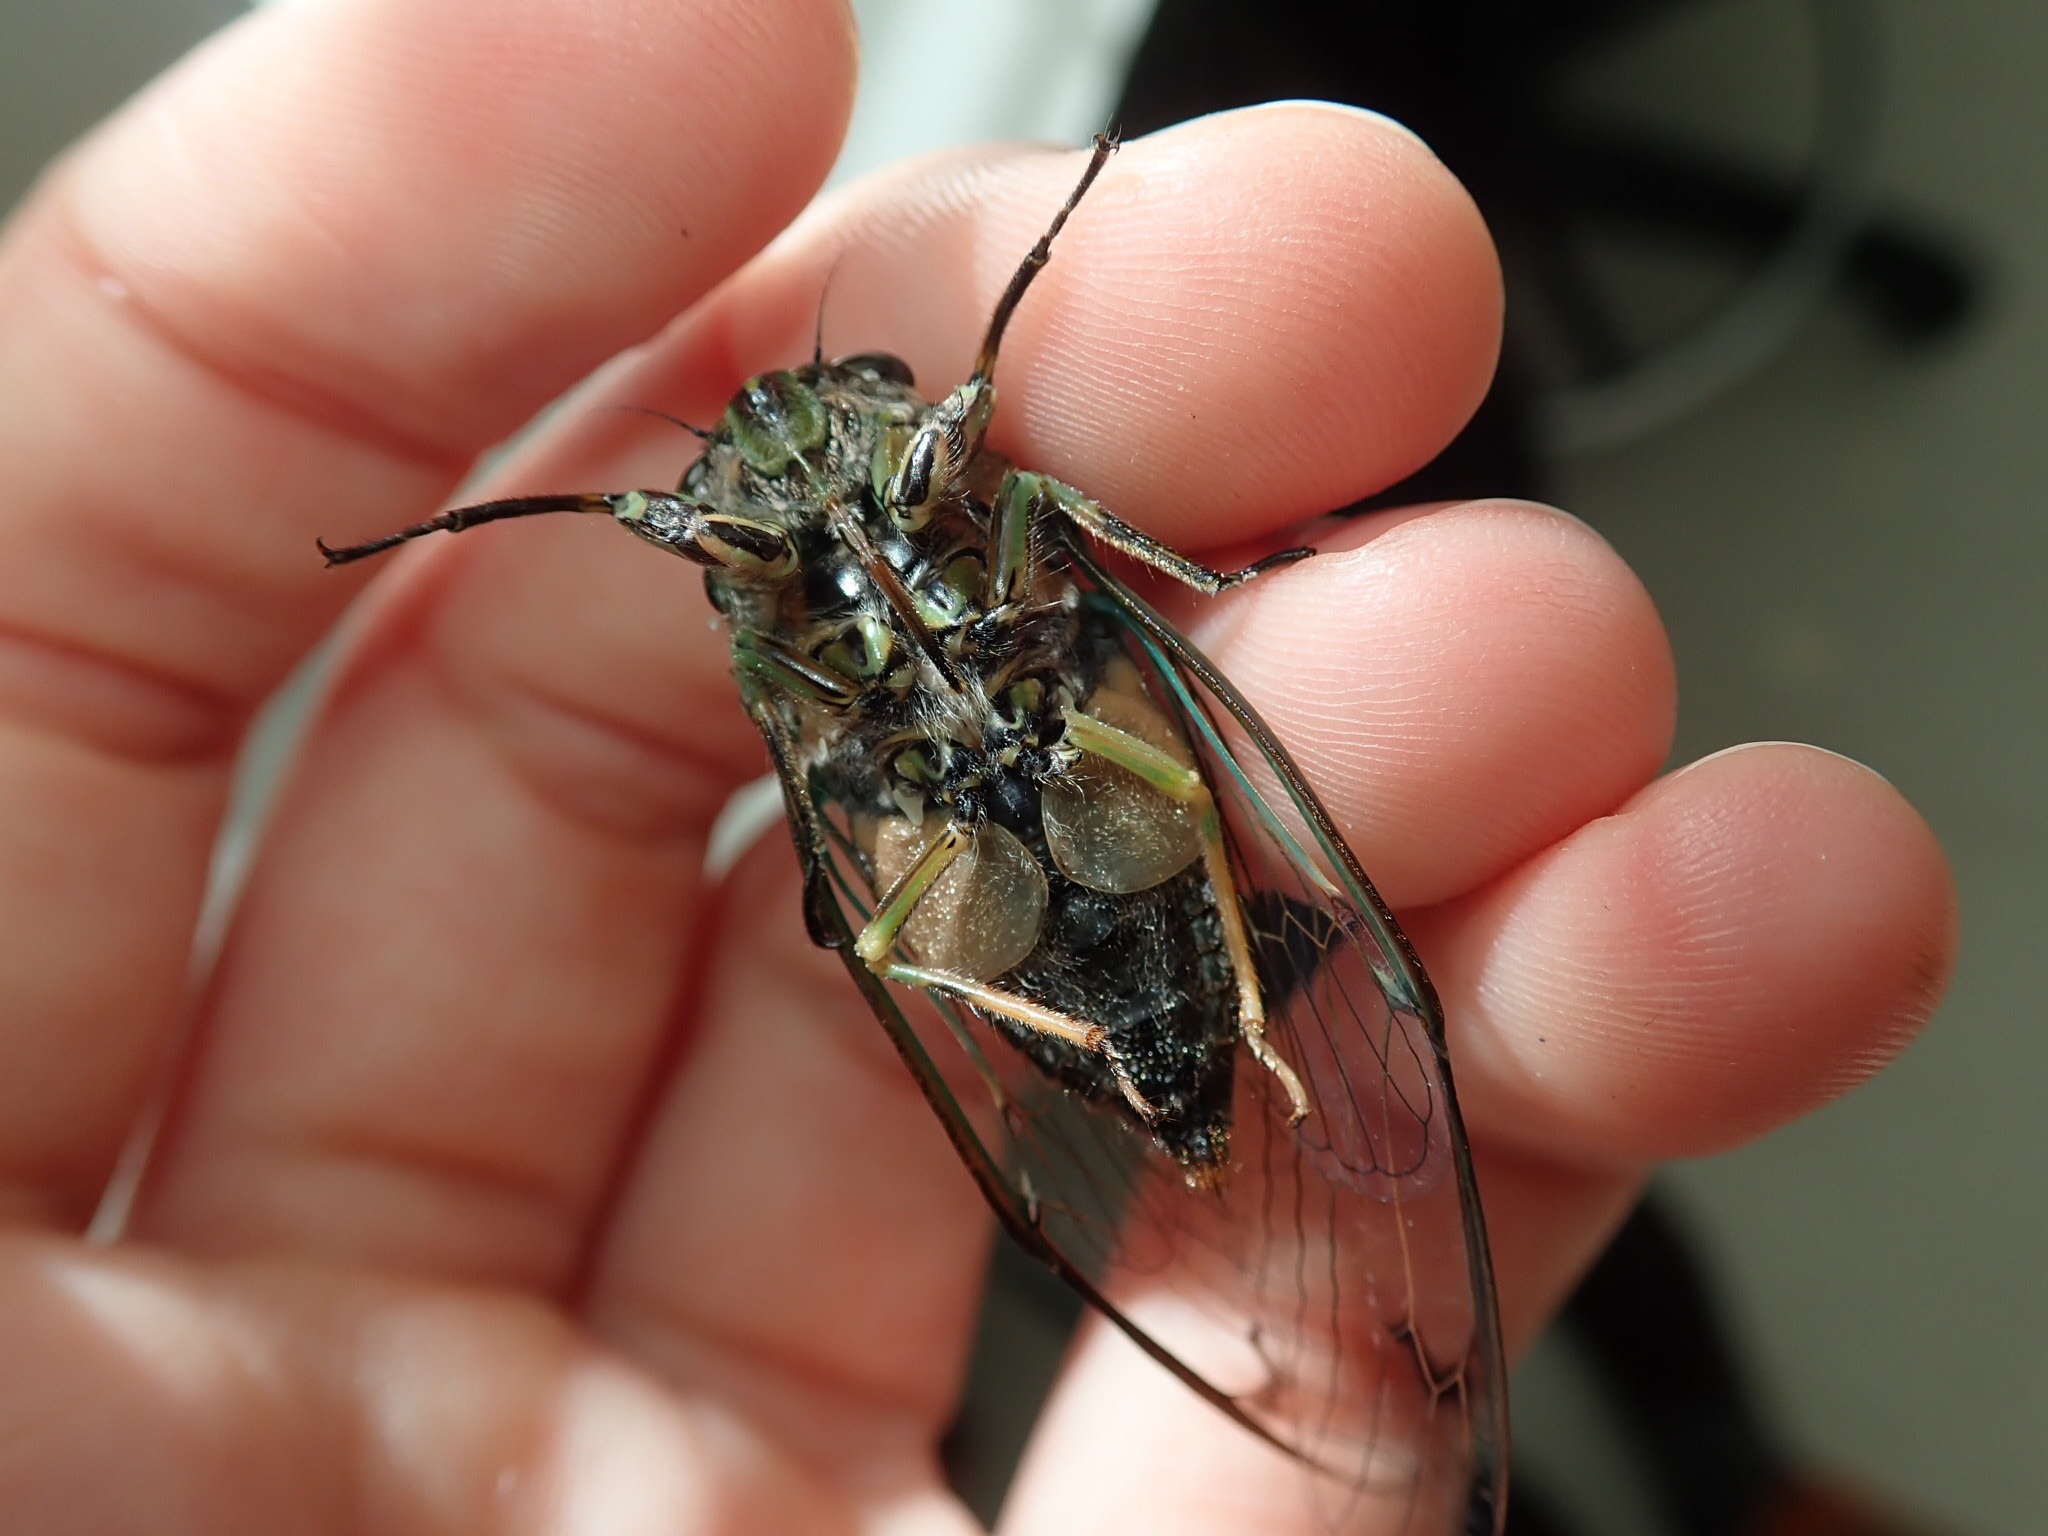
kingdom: Animalia
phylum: Arthropoda
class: Insecta
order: Hemiptera
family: Cicadidae
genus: Amphipsalta
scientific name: Amphipsalta zelandica
